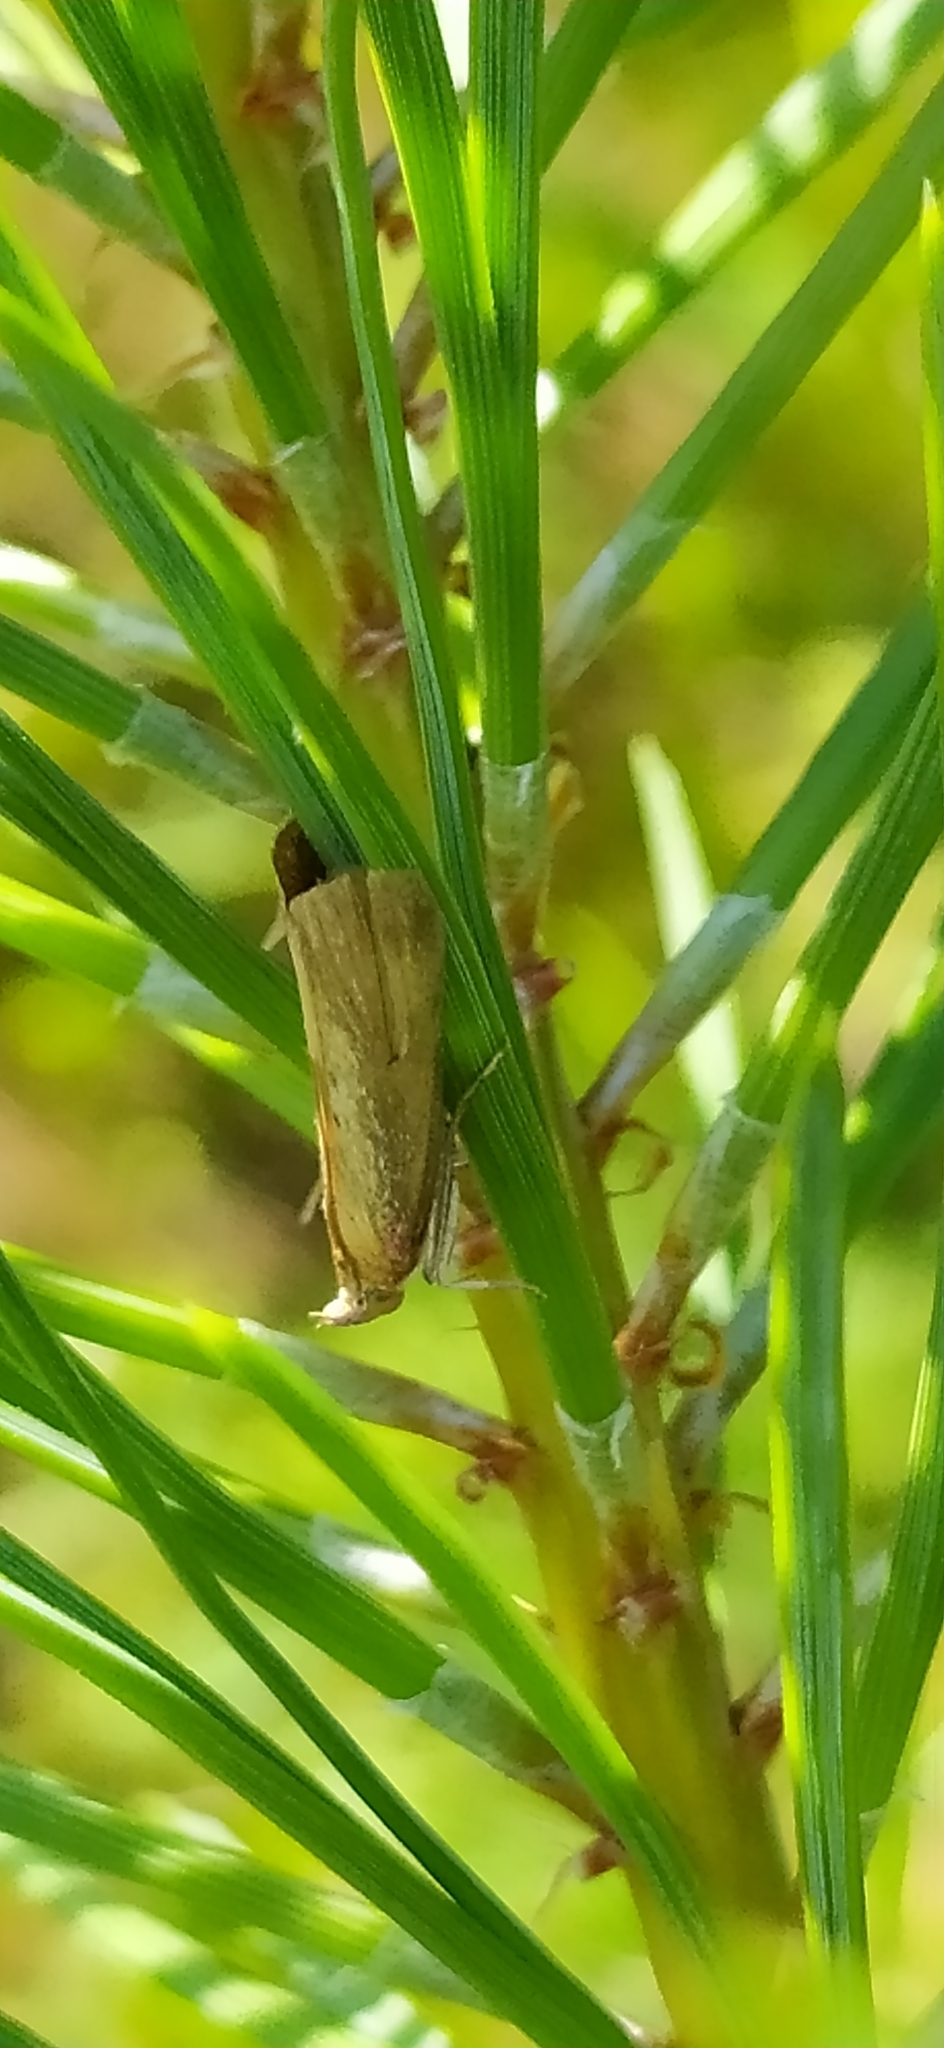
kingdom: Animalia
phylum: Arthropoda
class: Insecta
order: Lepidoptera
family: Pyralidae
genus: Oncocera
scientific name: Oncocera semirubella
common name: Rosy-striped knot-horn
